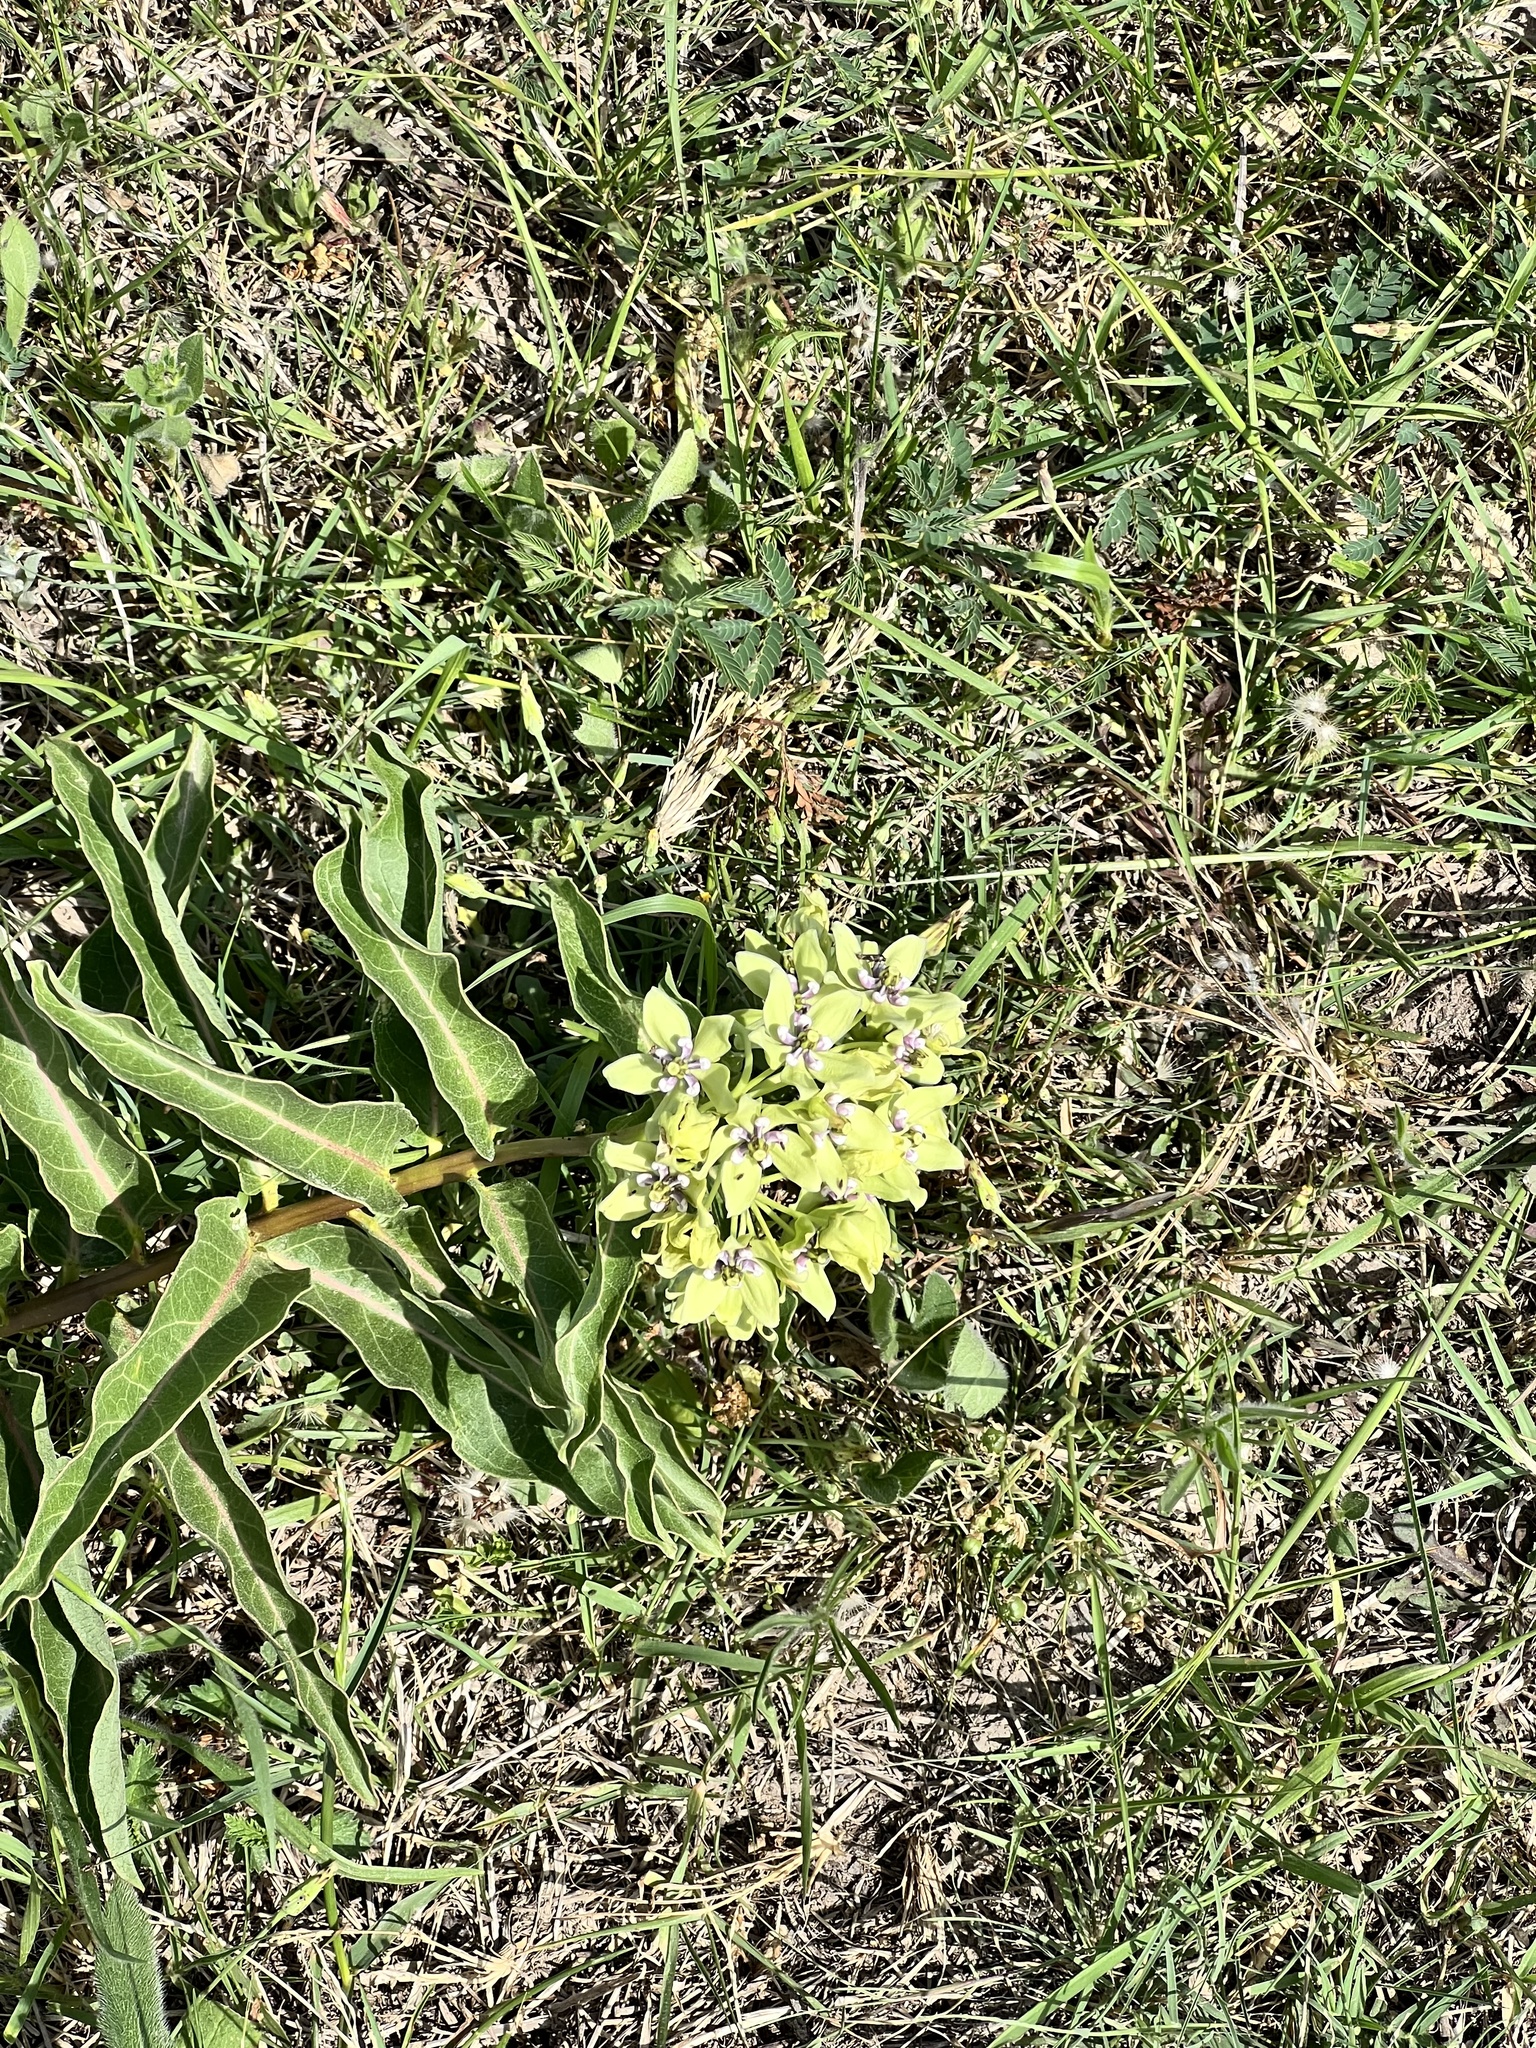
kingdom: Plantae
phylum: Tracheophyta
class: Magnoliopsida
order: Gentianales
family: Apocynaceae
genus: Asclepias
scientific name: Asclepias viridis
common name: Antelope-horns
